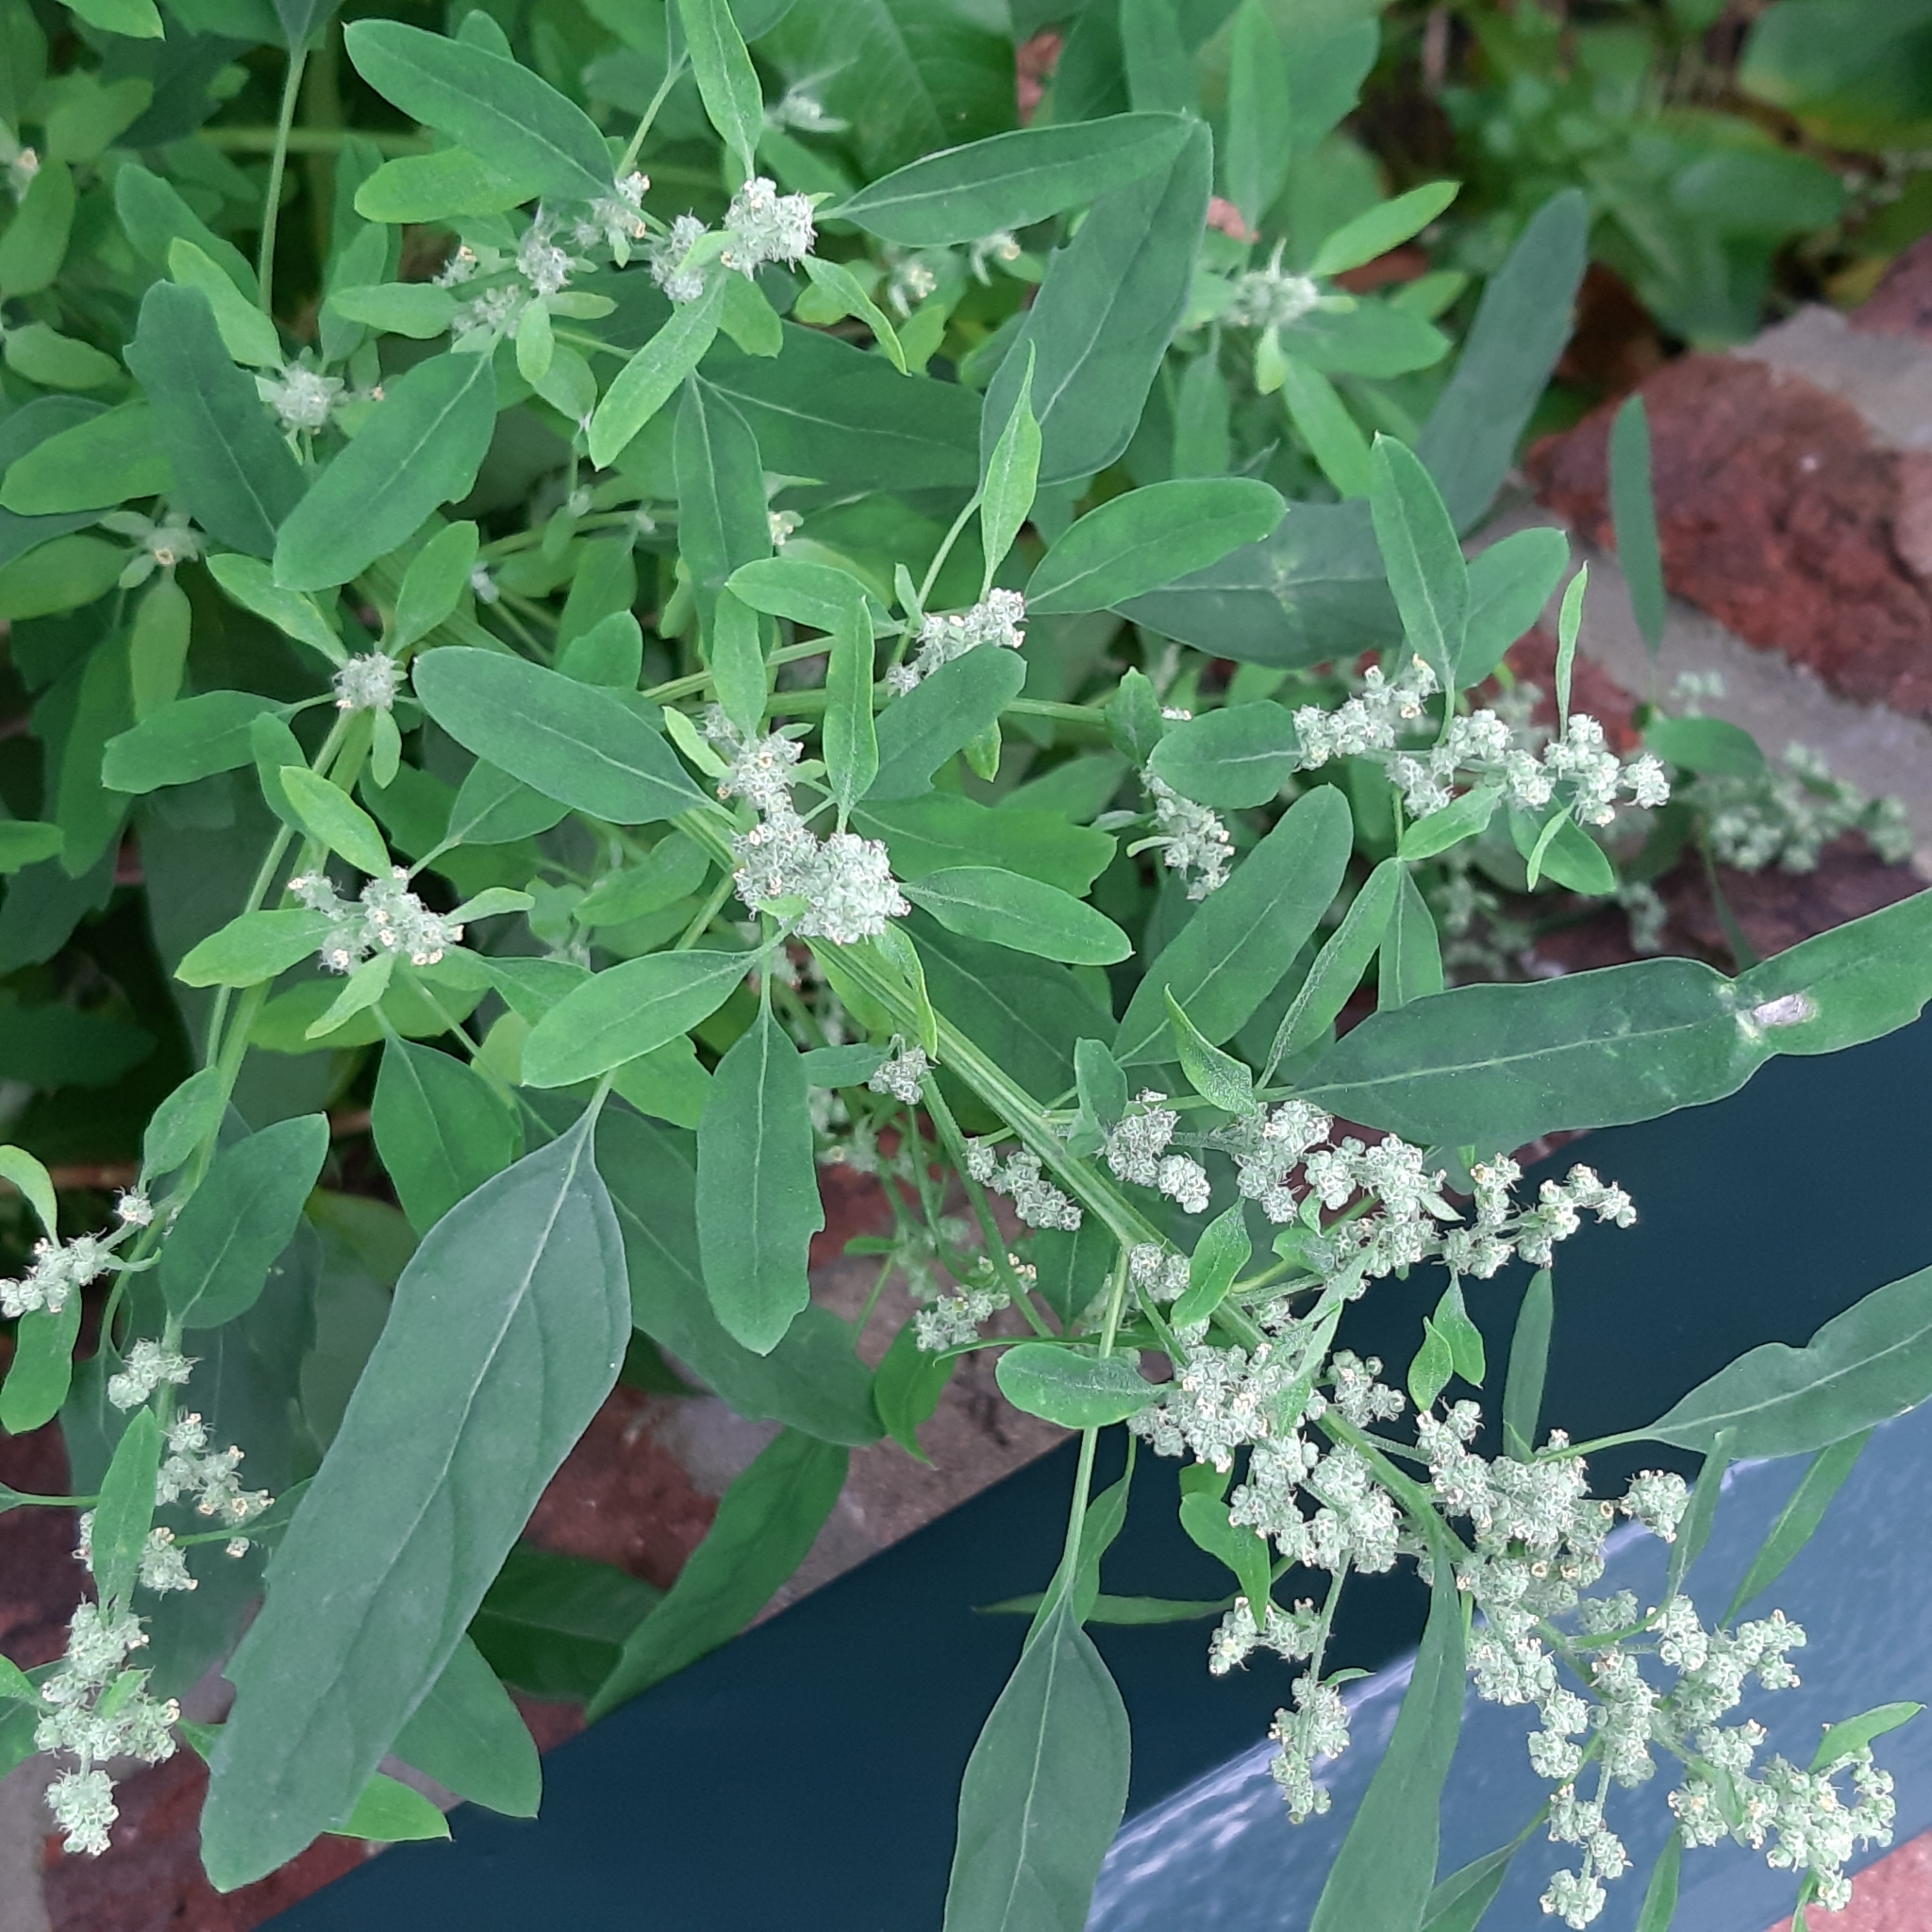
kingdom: Plantae
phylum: Tracheophyta
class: Magnoliopsida
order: Caryophyllales
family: Amaranthaceae
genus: Chenopodium
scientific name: Chenopodium album
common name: Fat-hen
